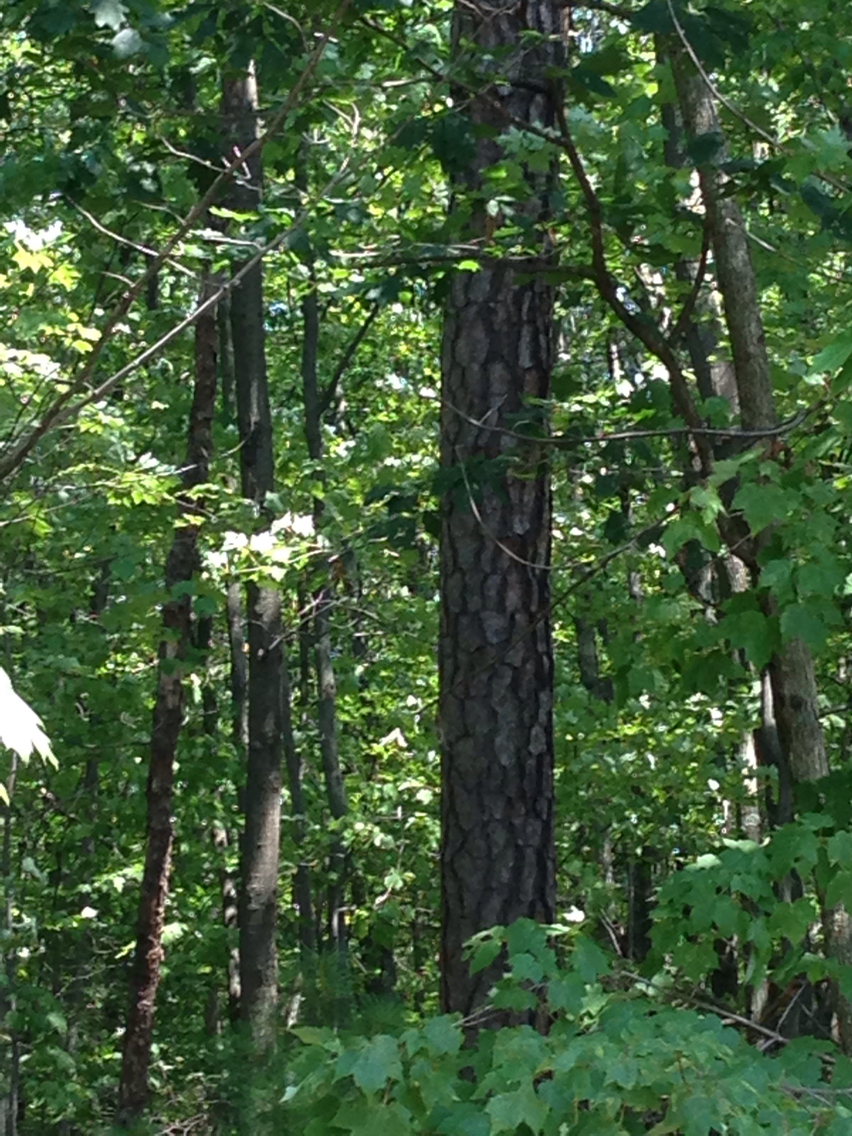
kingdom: Plantae
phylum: Tracheophyta
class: Pinopsida
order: Pinales
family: Pinaceae
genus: Pinus
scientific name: Pinus rigida
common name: Pitch pine
